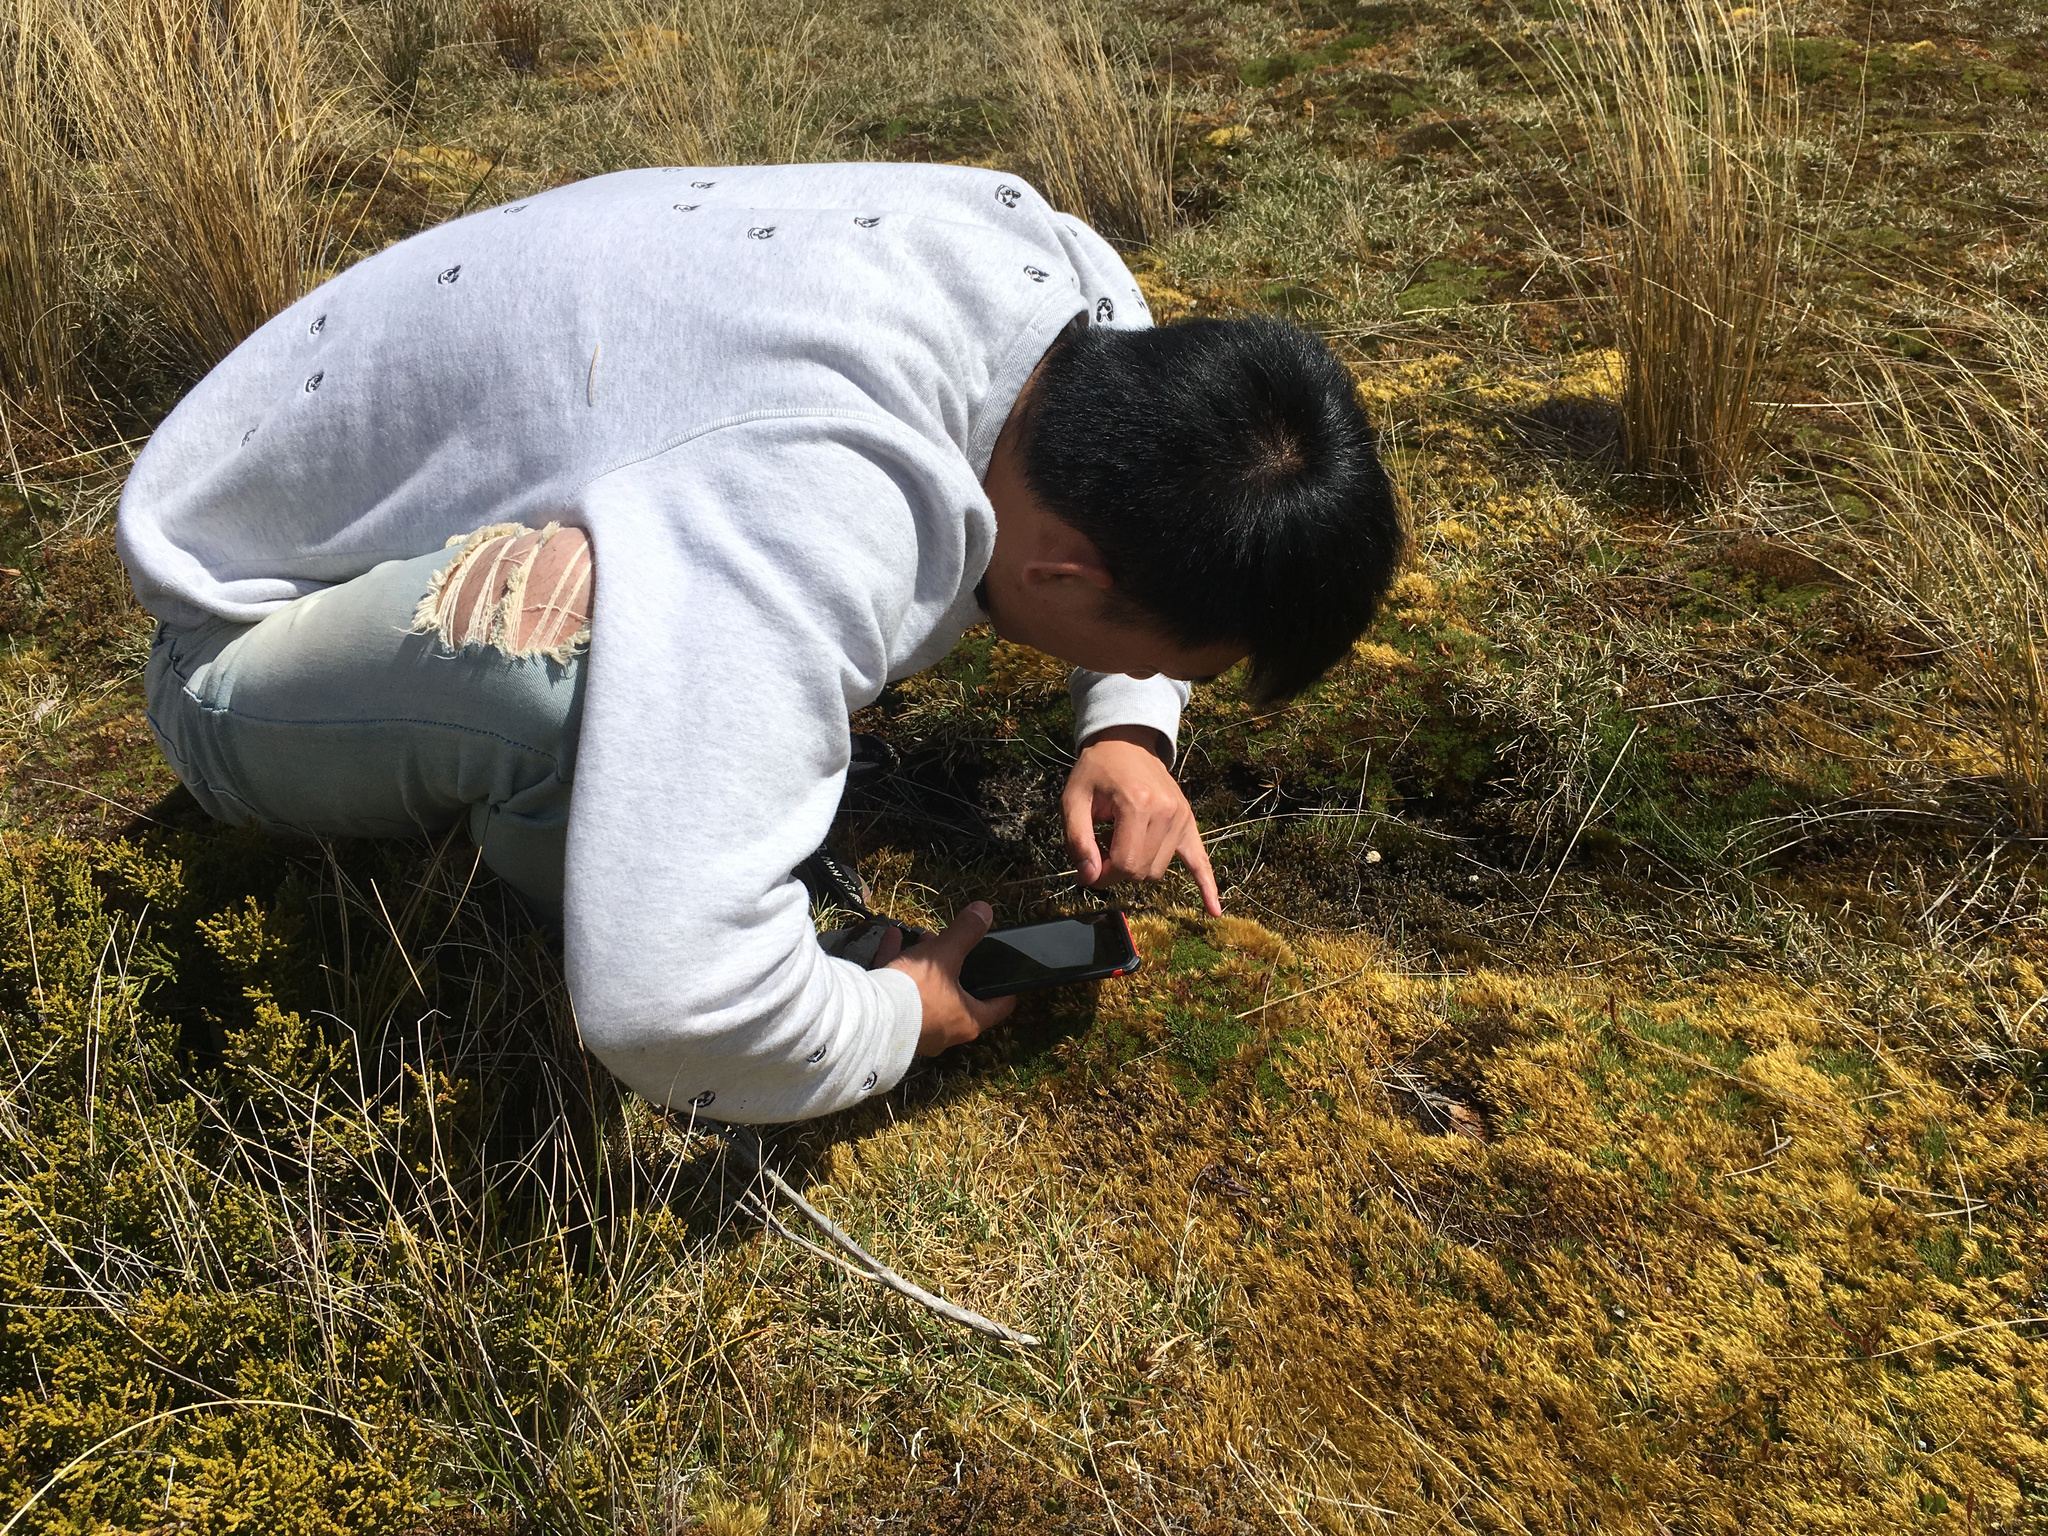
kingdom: Plantae
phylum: Tracheophyta
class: Magnoliopsida
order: Caryophyllales
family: Droseraceae
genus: Drosera
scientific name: Drosera arcturi
